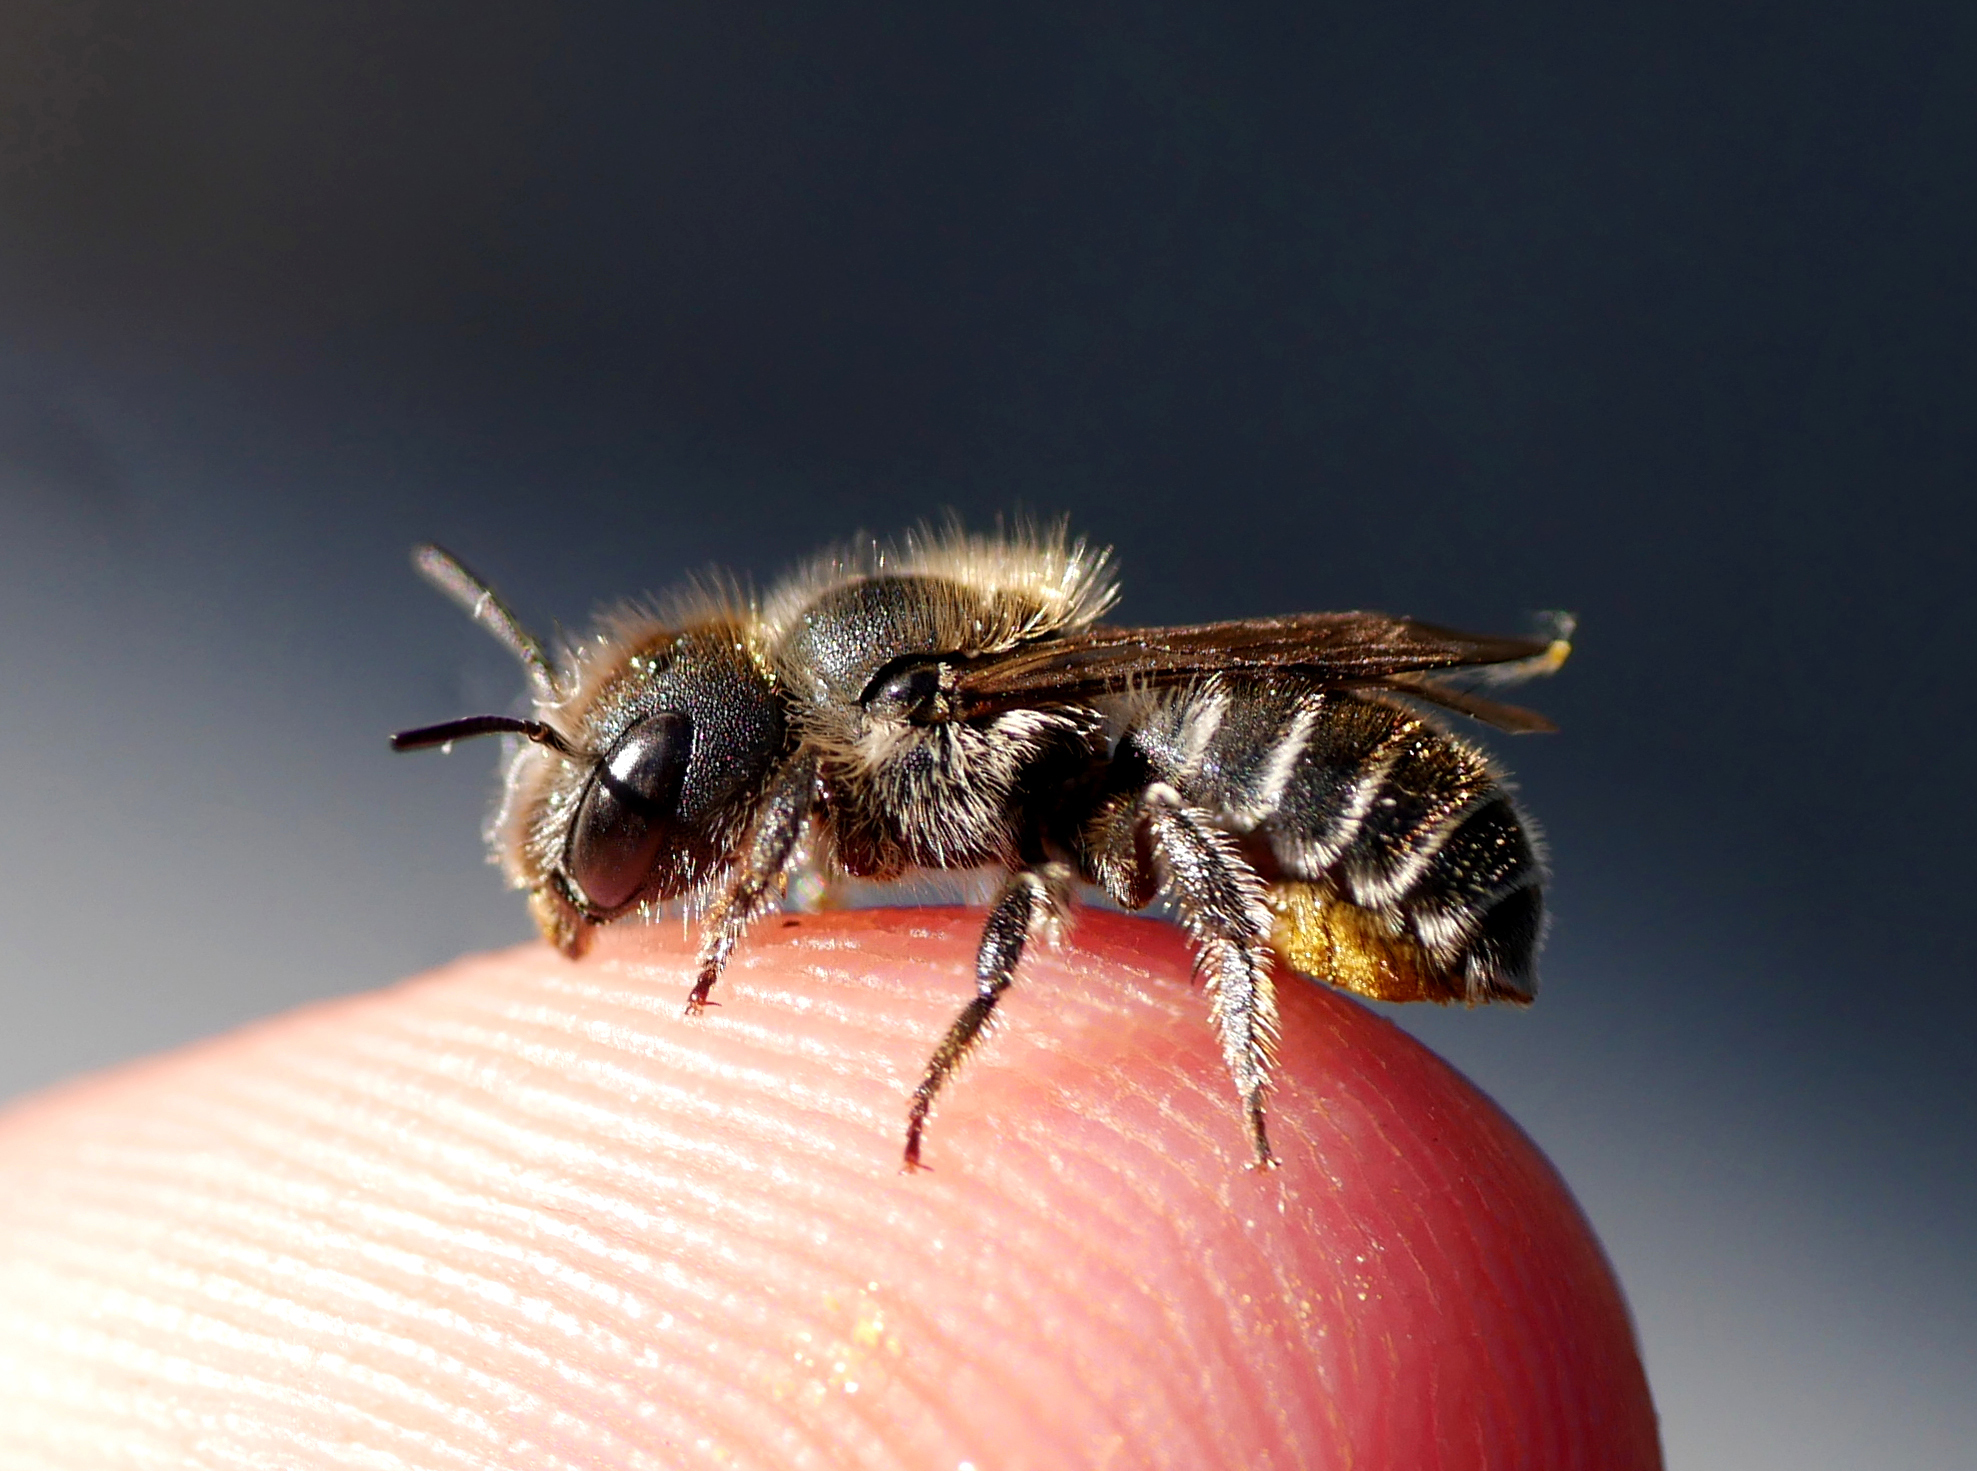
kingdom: Animalia
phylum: Arthropoda
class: Insecta
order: Hymenoptera
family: Megachilidae
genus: Hoplitis
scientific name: Hoplitis claviventris
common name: Welted mason bee
